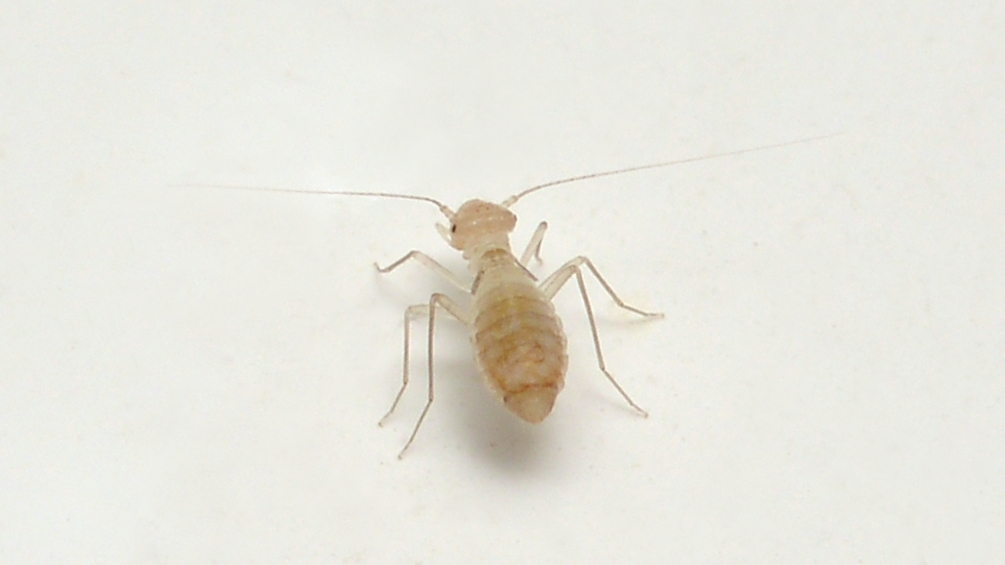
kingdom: Animalia
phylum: Arthropoda
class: Insecta
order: Psocodea
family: Psyllipsocidae
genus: Psyllipsocus
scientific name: Psyllipsocus ramburii
